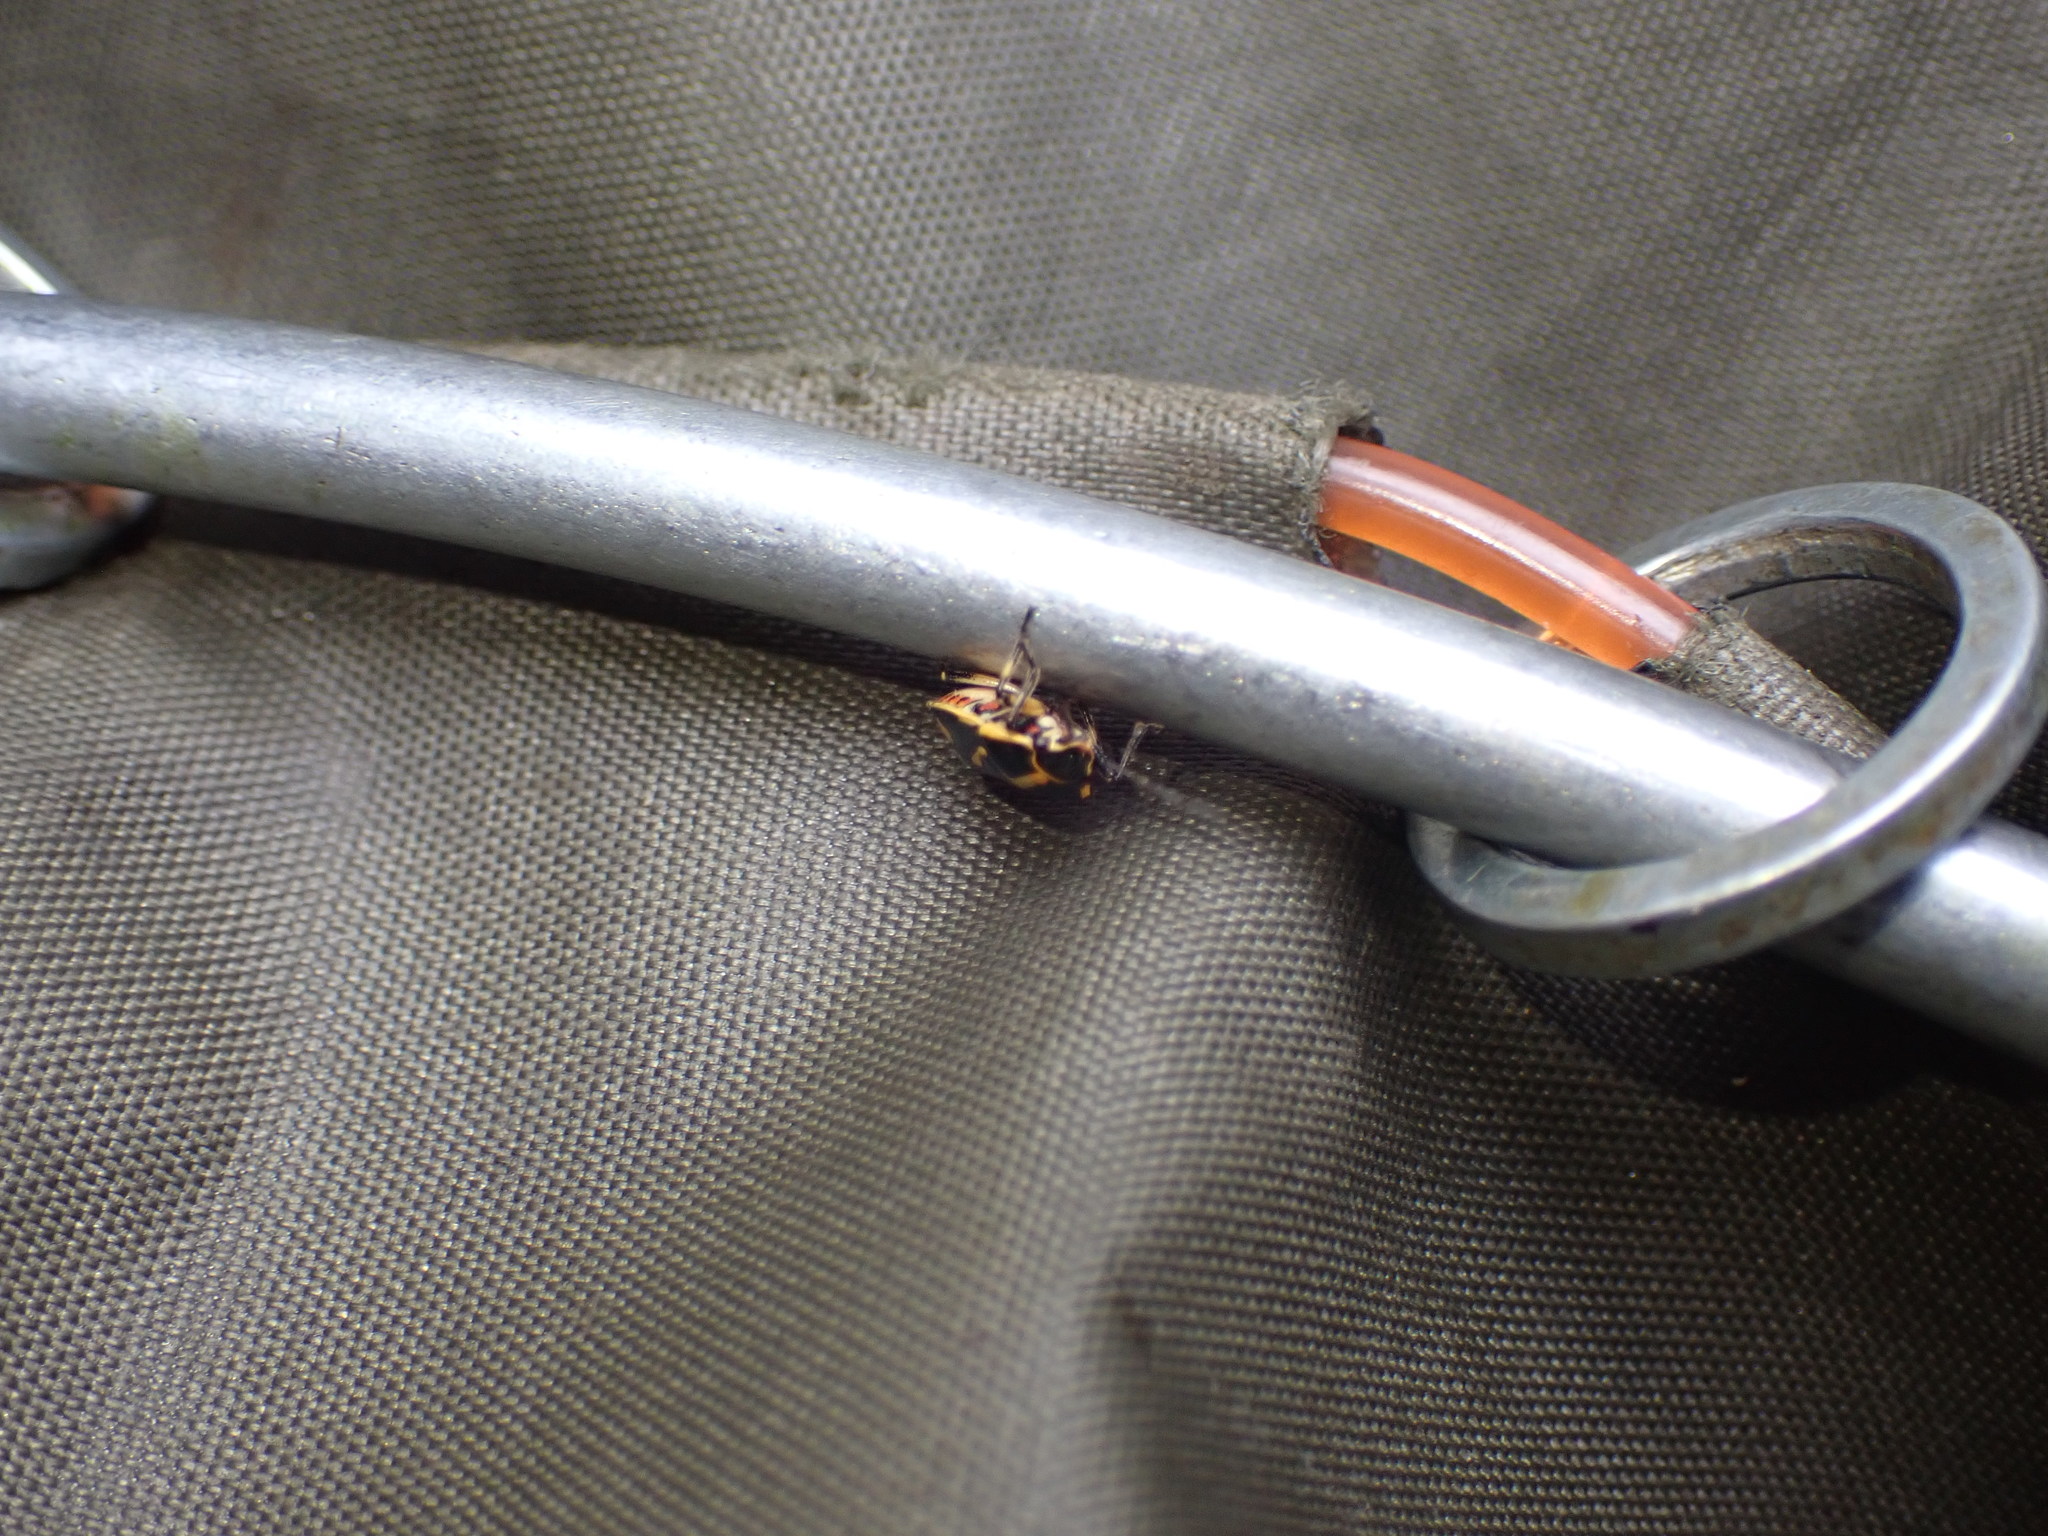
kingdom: Animalia
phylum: Arthropoda
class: Insecta
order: Hemiptera
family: Pentatomidae
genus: Eurydema
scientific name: Eurydema oleracea
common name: Cabbage bug
